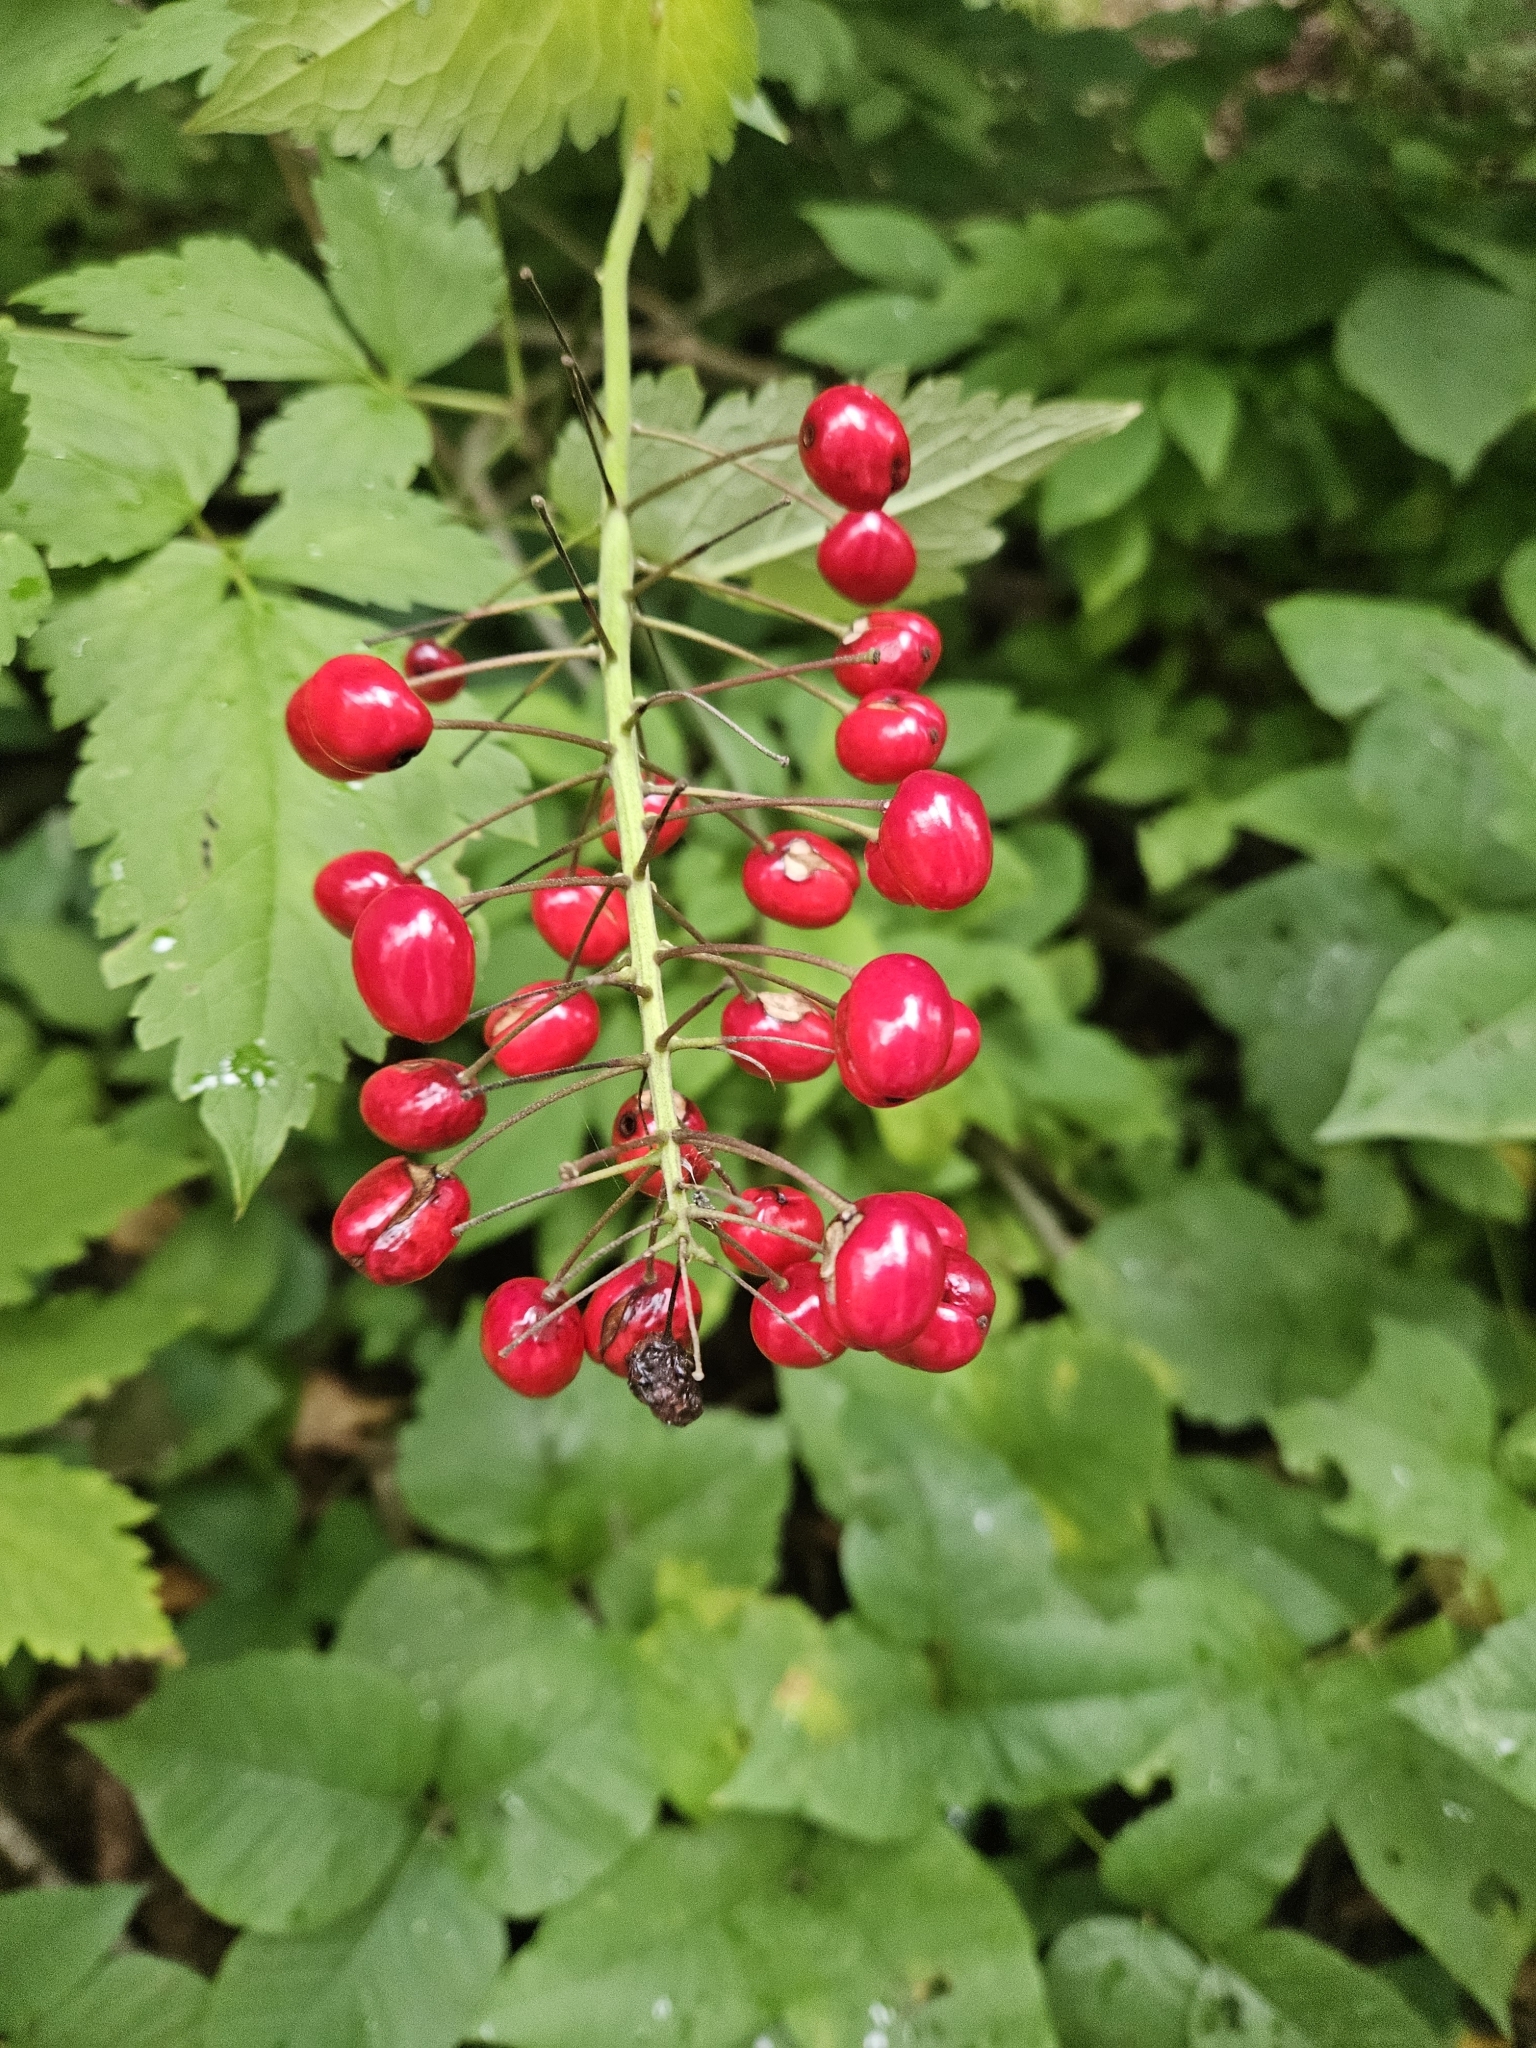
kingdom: Plantae
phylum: Tracheophyta
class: Magnoliopsida
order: Ranunculales
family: Ranunculaceae
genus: Actaea
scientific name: Actaea rubra
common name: Red baneberry
